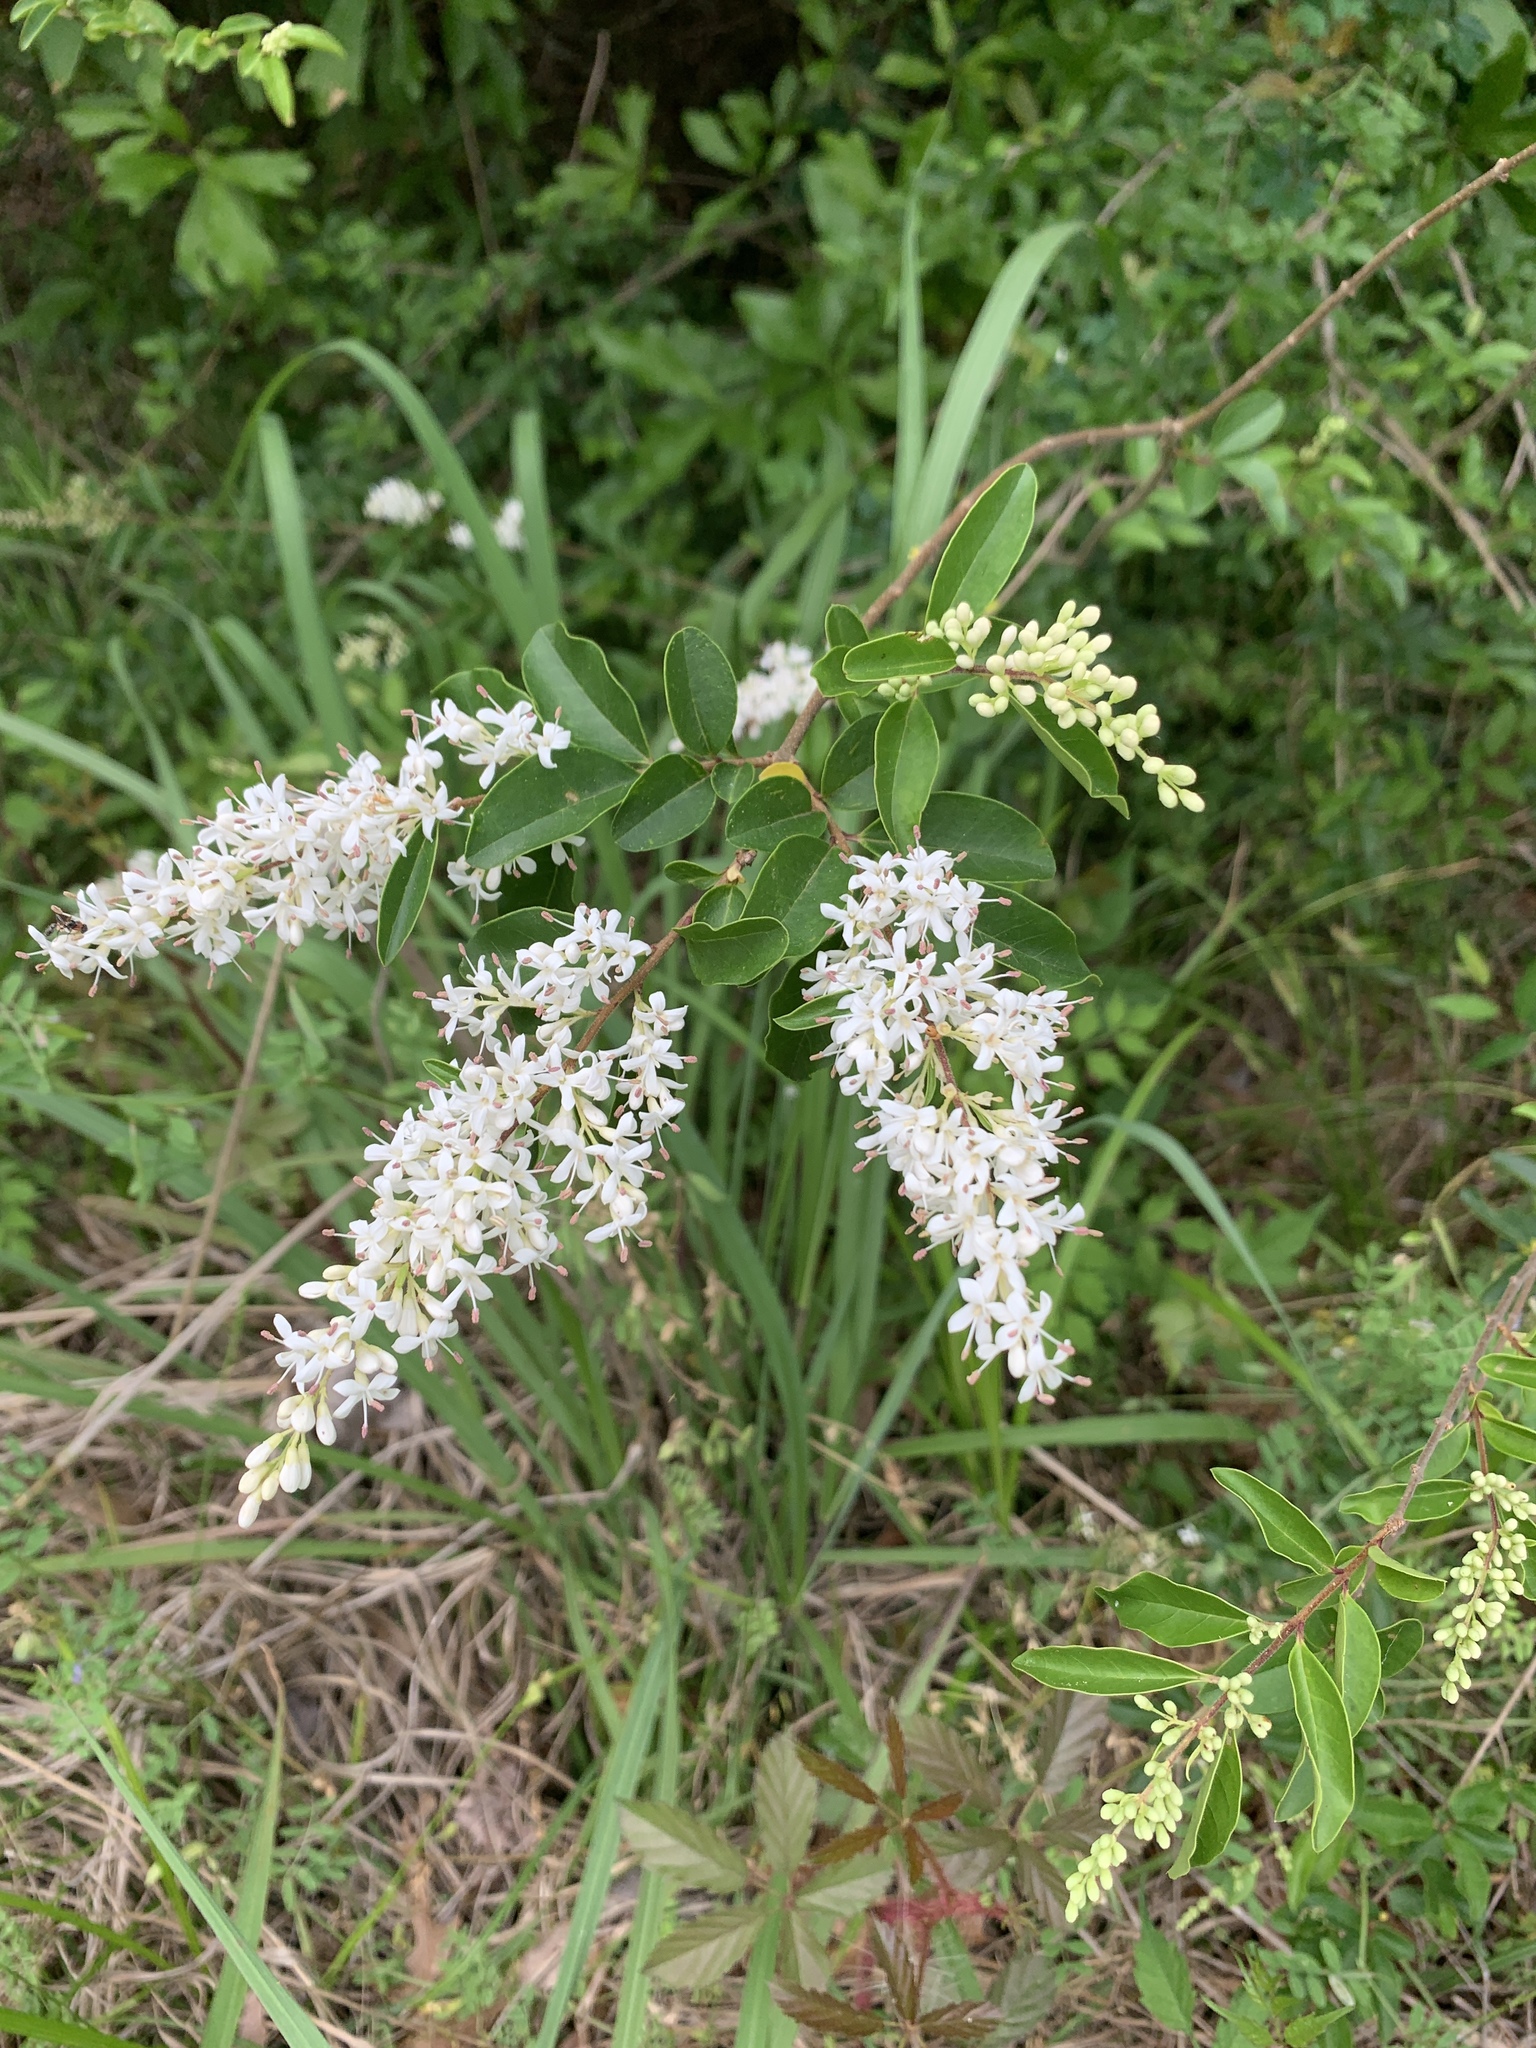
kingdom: Plantae
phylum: Tracheophyta
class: Magnoliopsida
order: Lamiales
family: Oleaceae
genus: Ligustrum
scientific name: Ligustrum sinense
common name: Chinese privet
